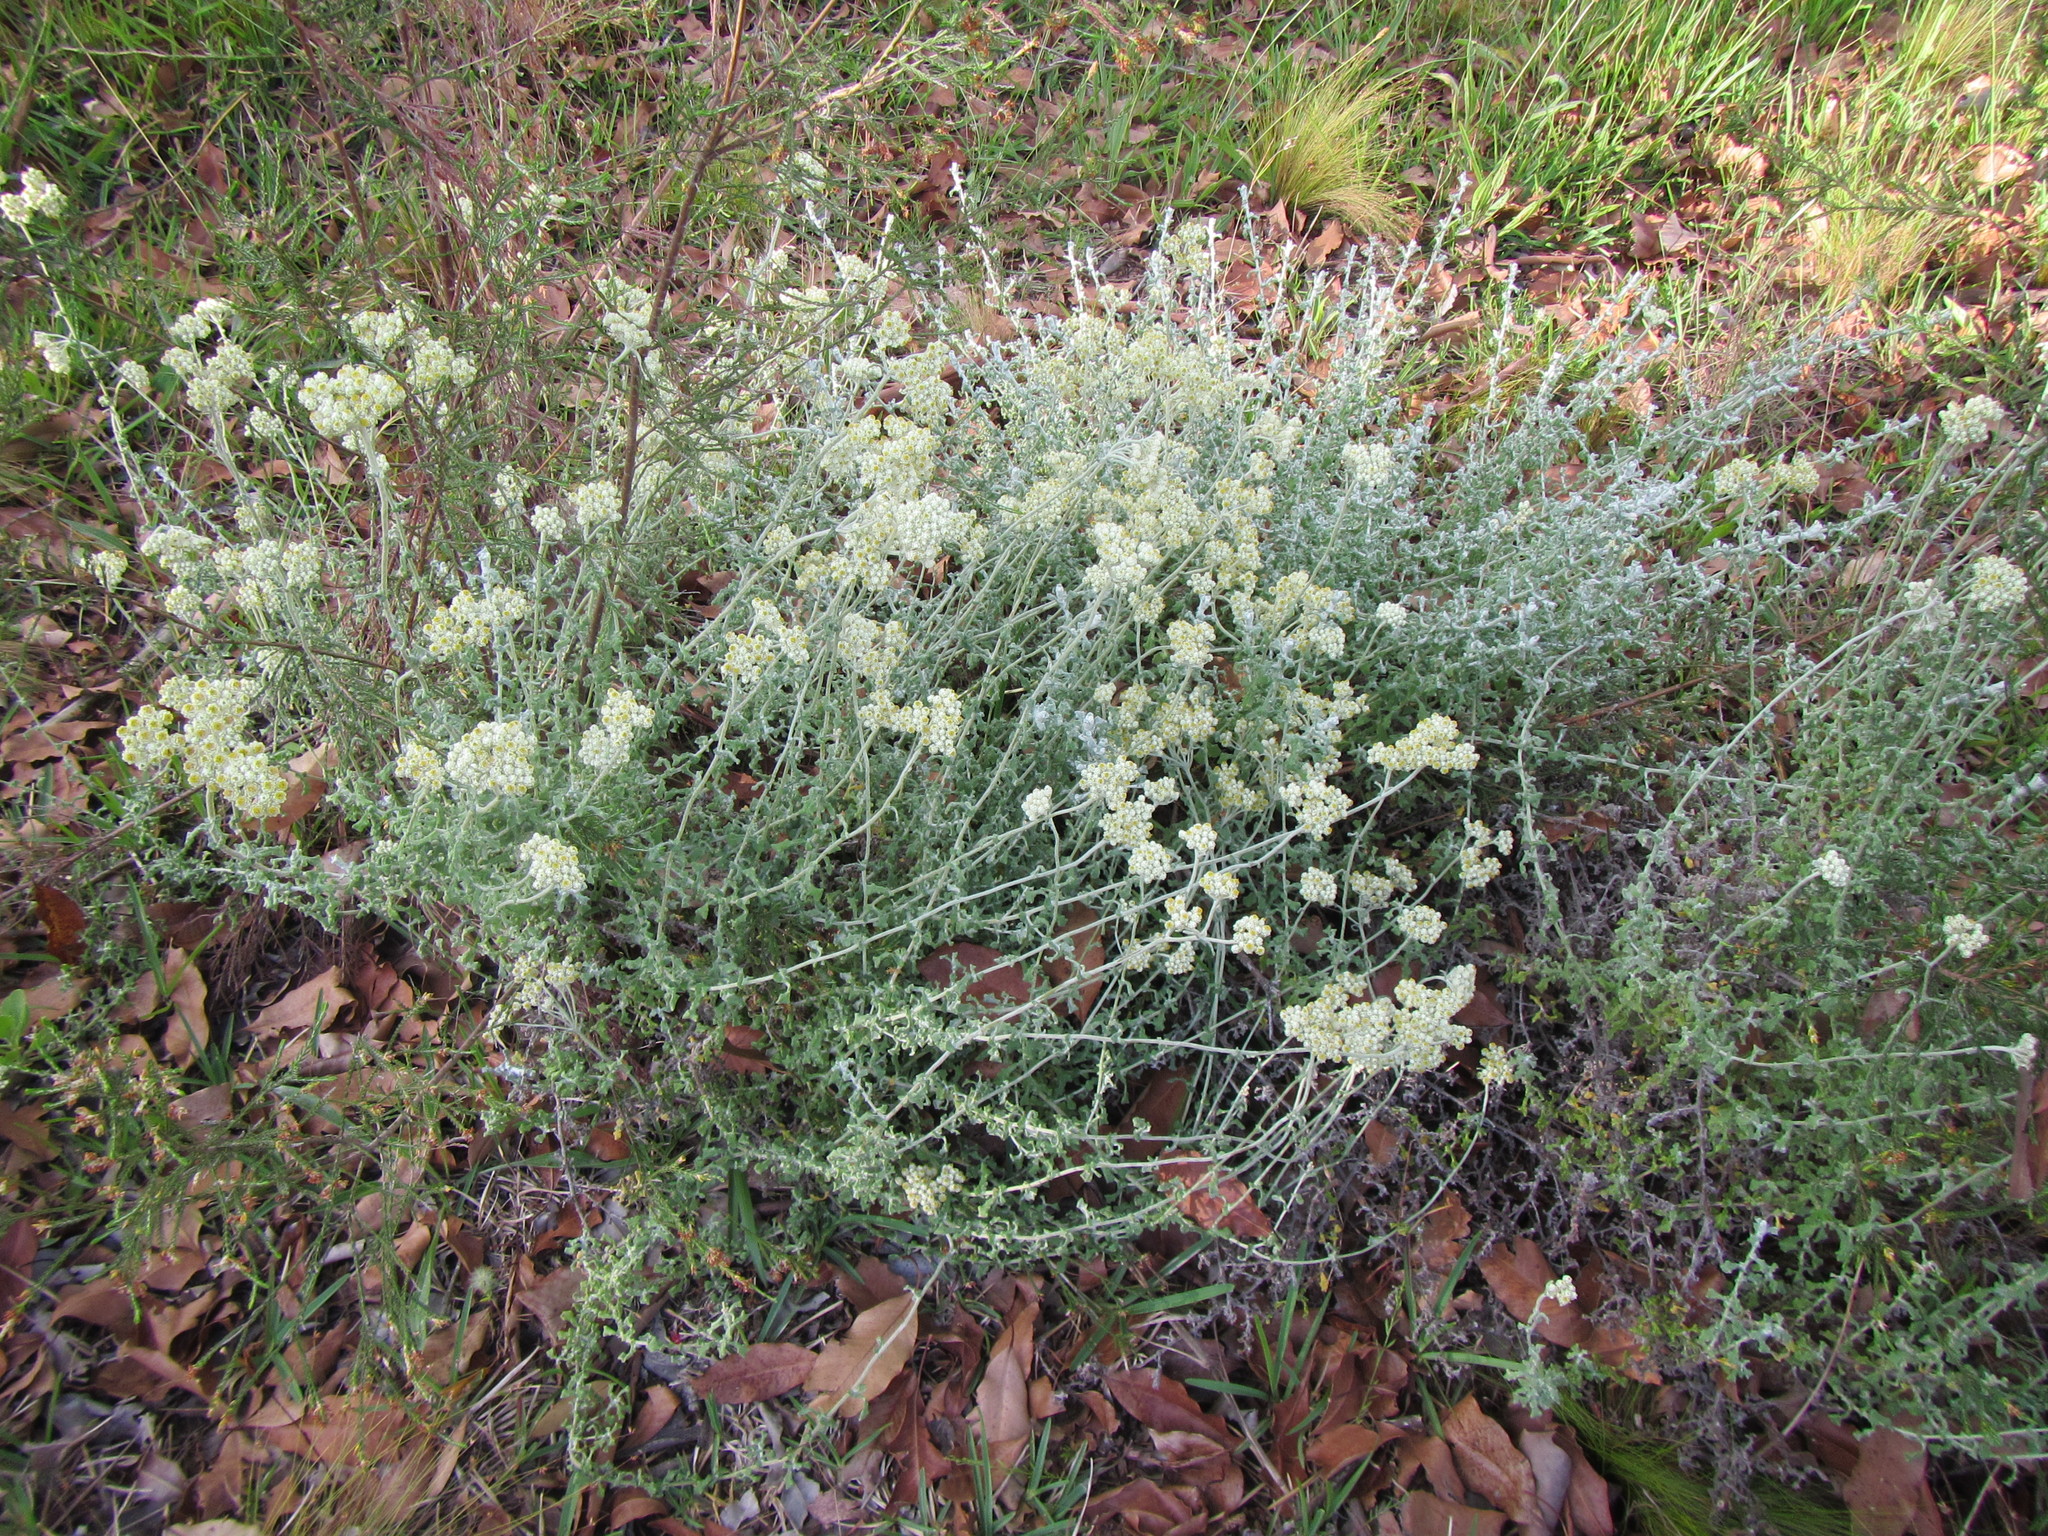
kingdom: Plantae
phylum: Tracheophyta
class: Magnoliopsida
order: Asterales
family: Asteraceae
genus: Helichrysum
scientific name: Helichrysum patulum
